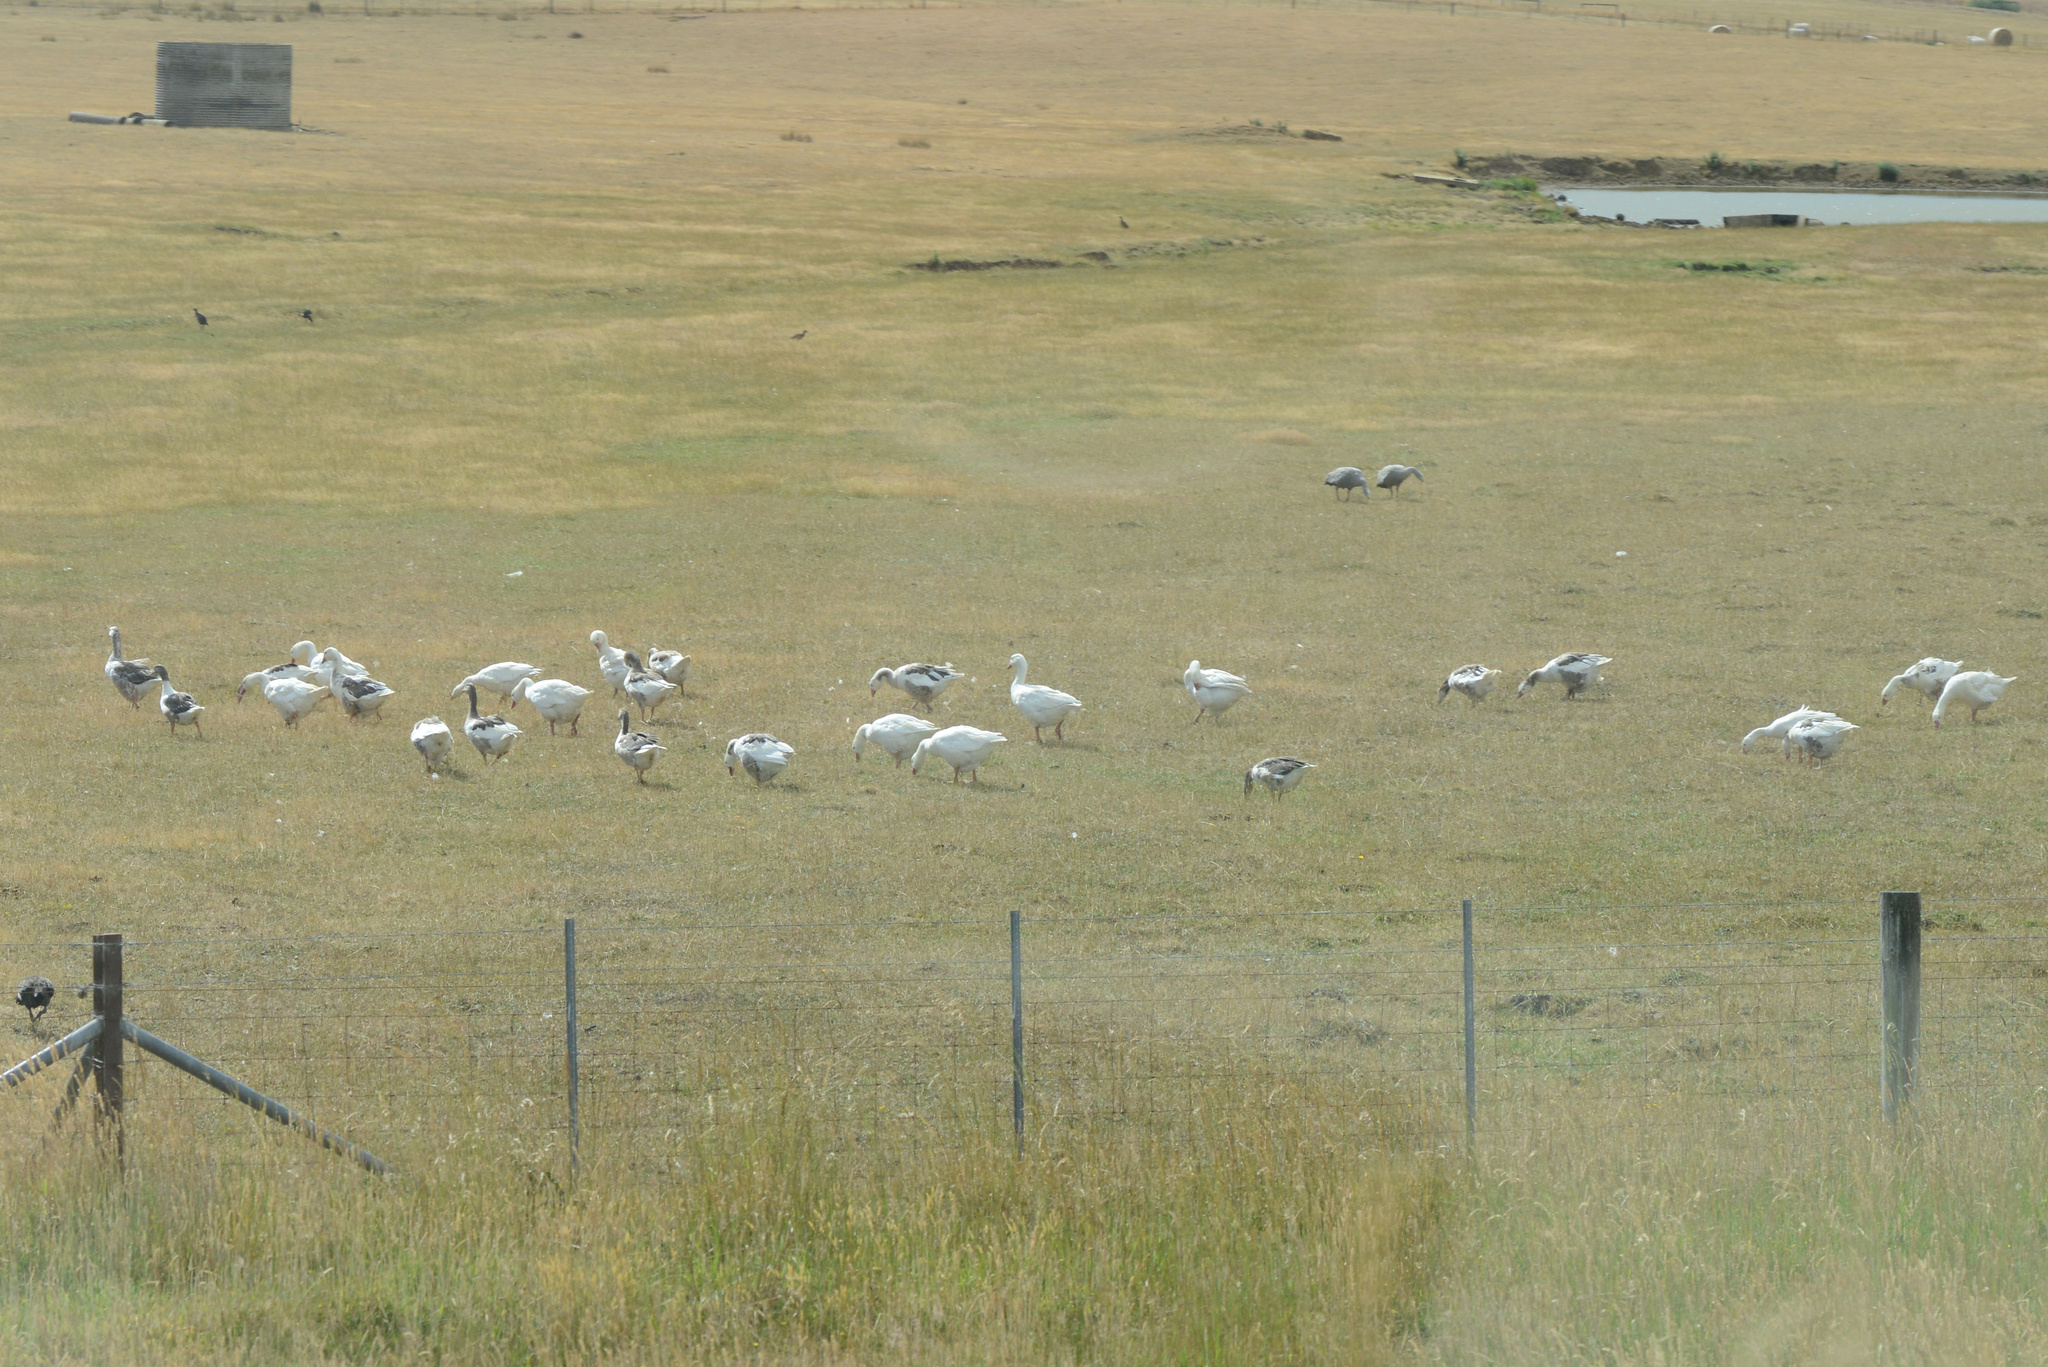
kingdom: Animalia
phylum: Chordata
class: Aves
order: Anseriformes
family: Anatidae
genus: Anser
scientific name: Anser anser
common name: Greylag goose
